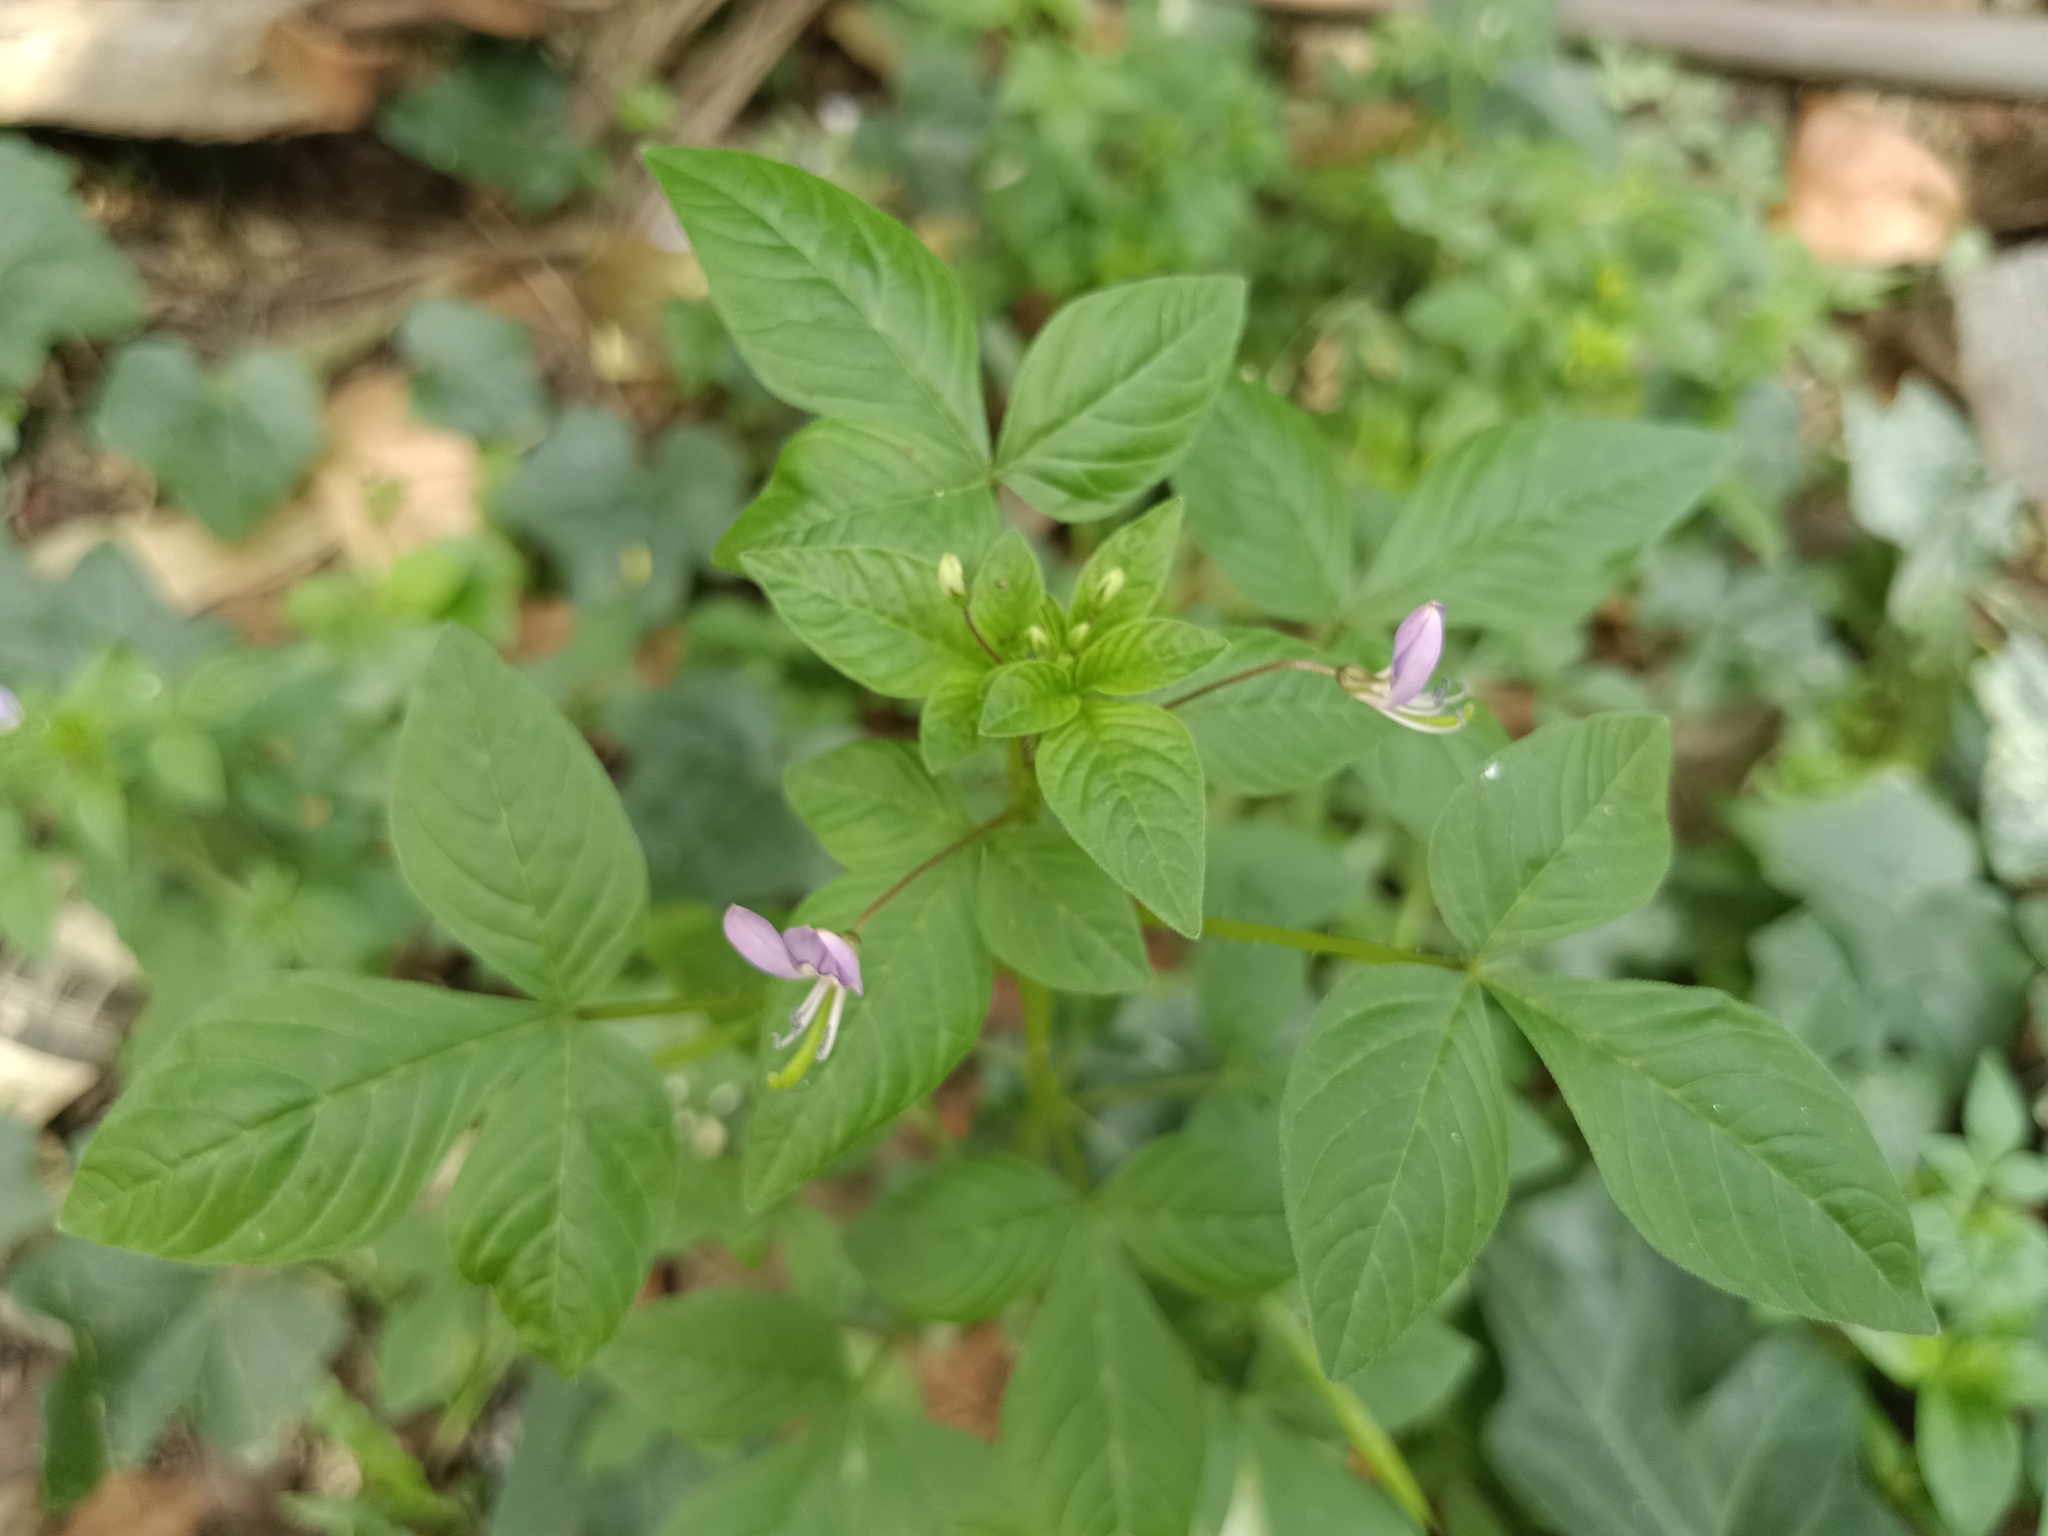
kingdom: Plantae
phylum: Tracheophyta
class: Magnoliopsida
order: Brassicales
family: Cleomaceae
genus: Sieruela
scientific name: Sieruela rutidosperma
